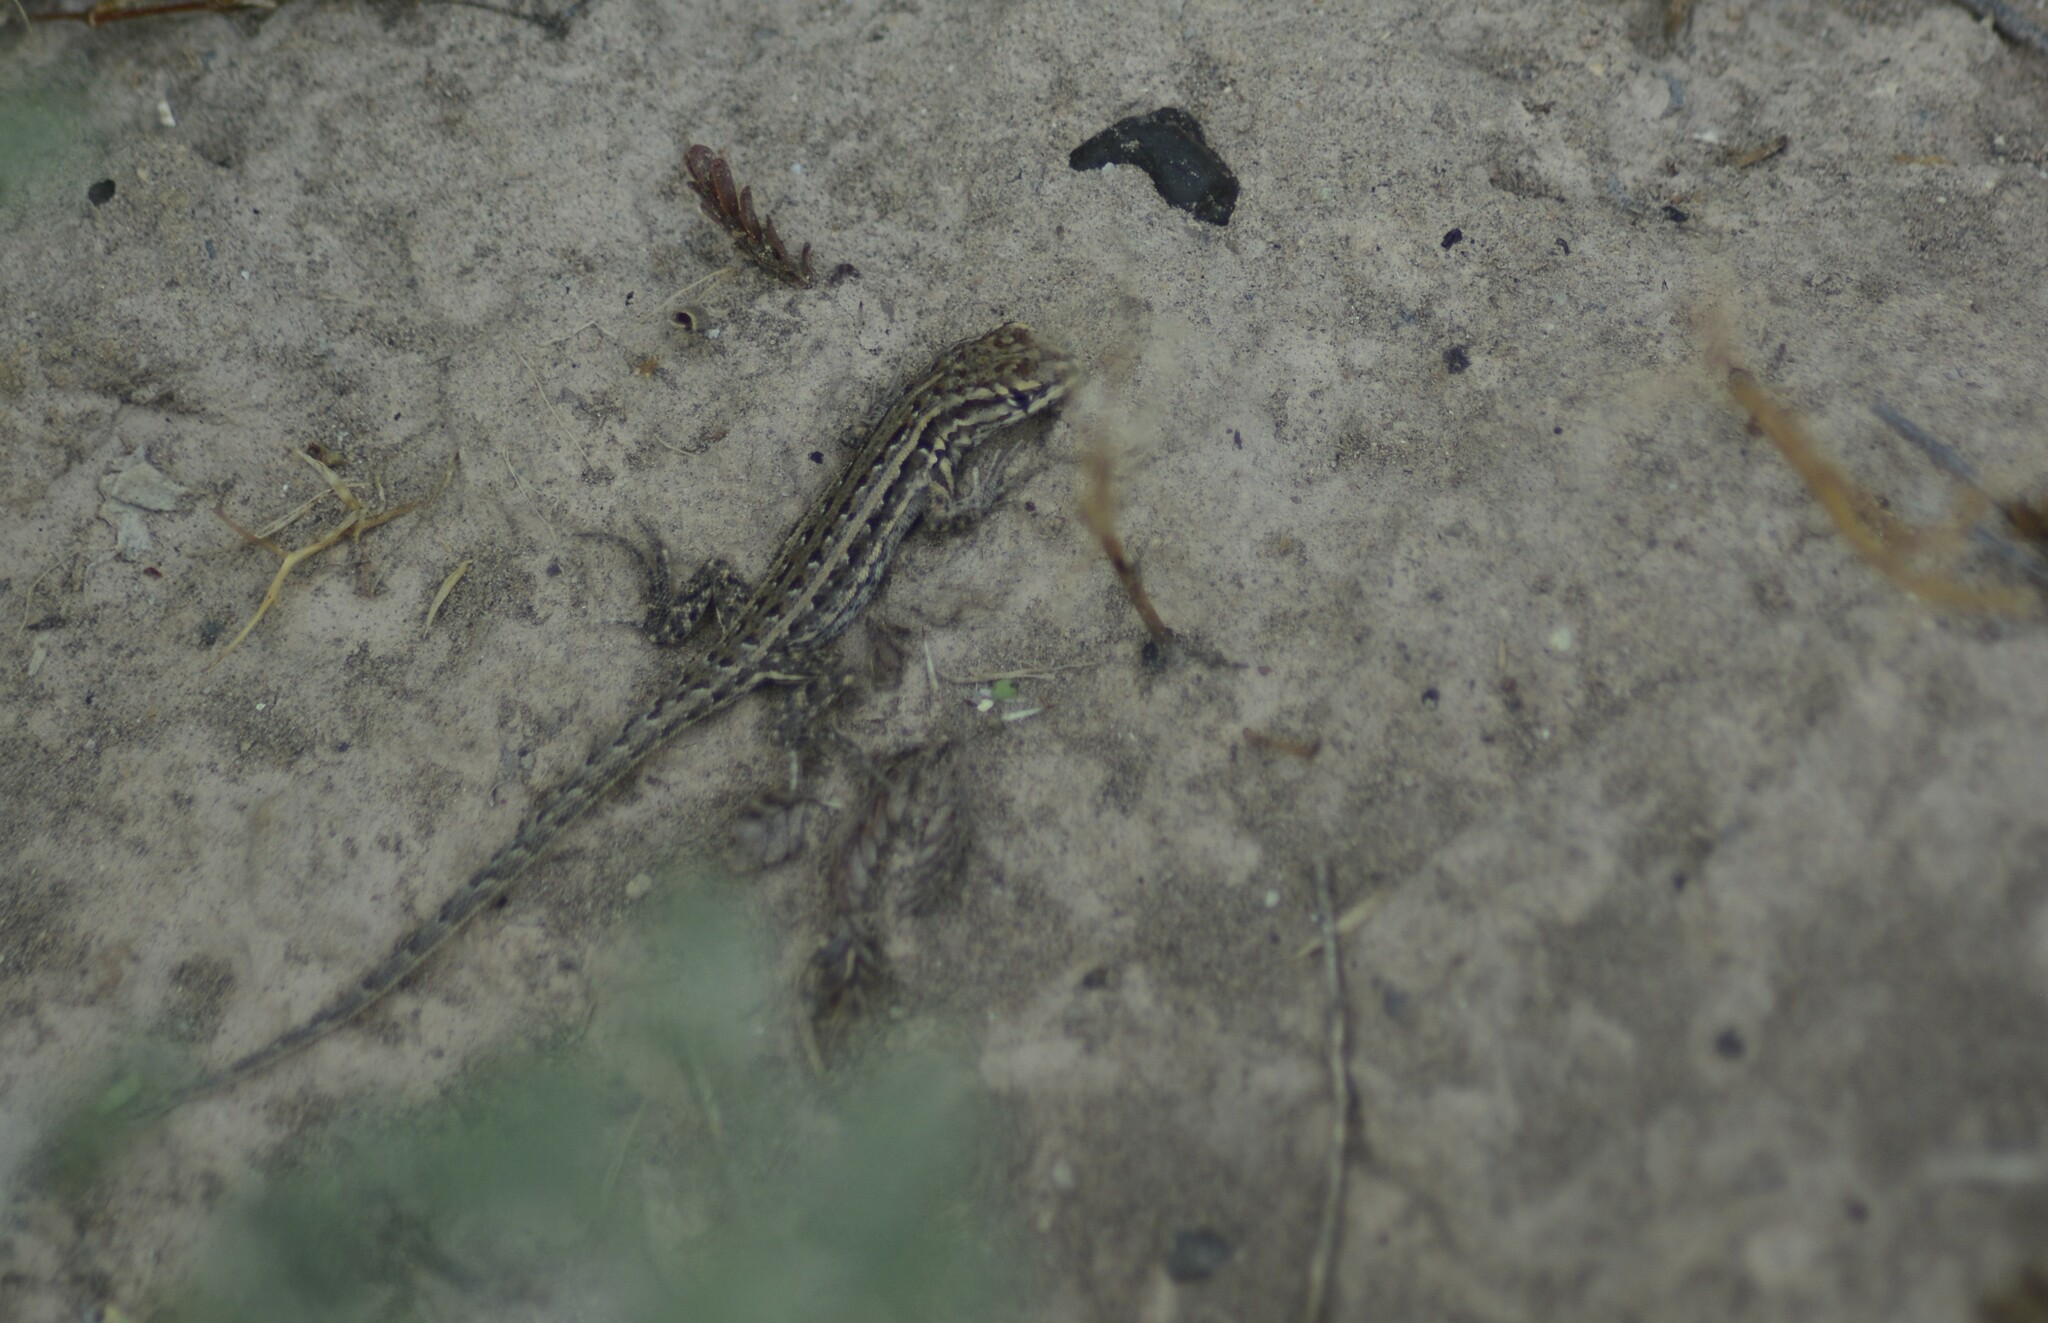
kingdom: Animalia
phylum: Chordata
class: Squamata
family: Liolaemidae
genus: Liolaemus
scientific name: Liolaemus grosseorum
